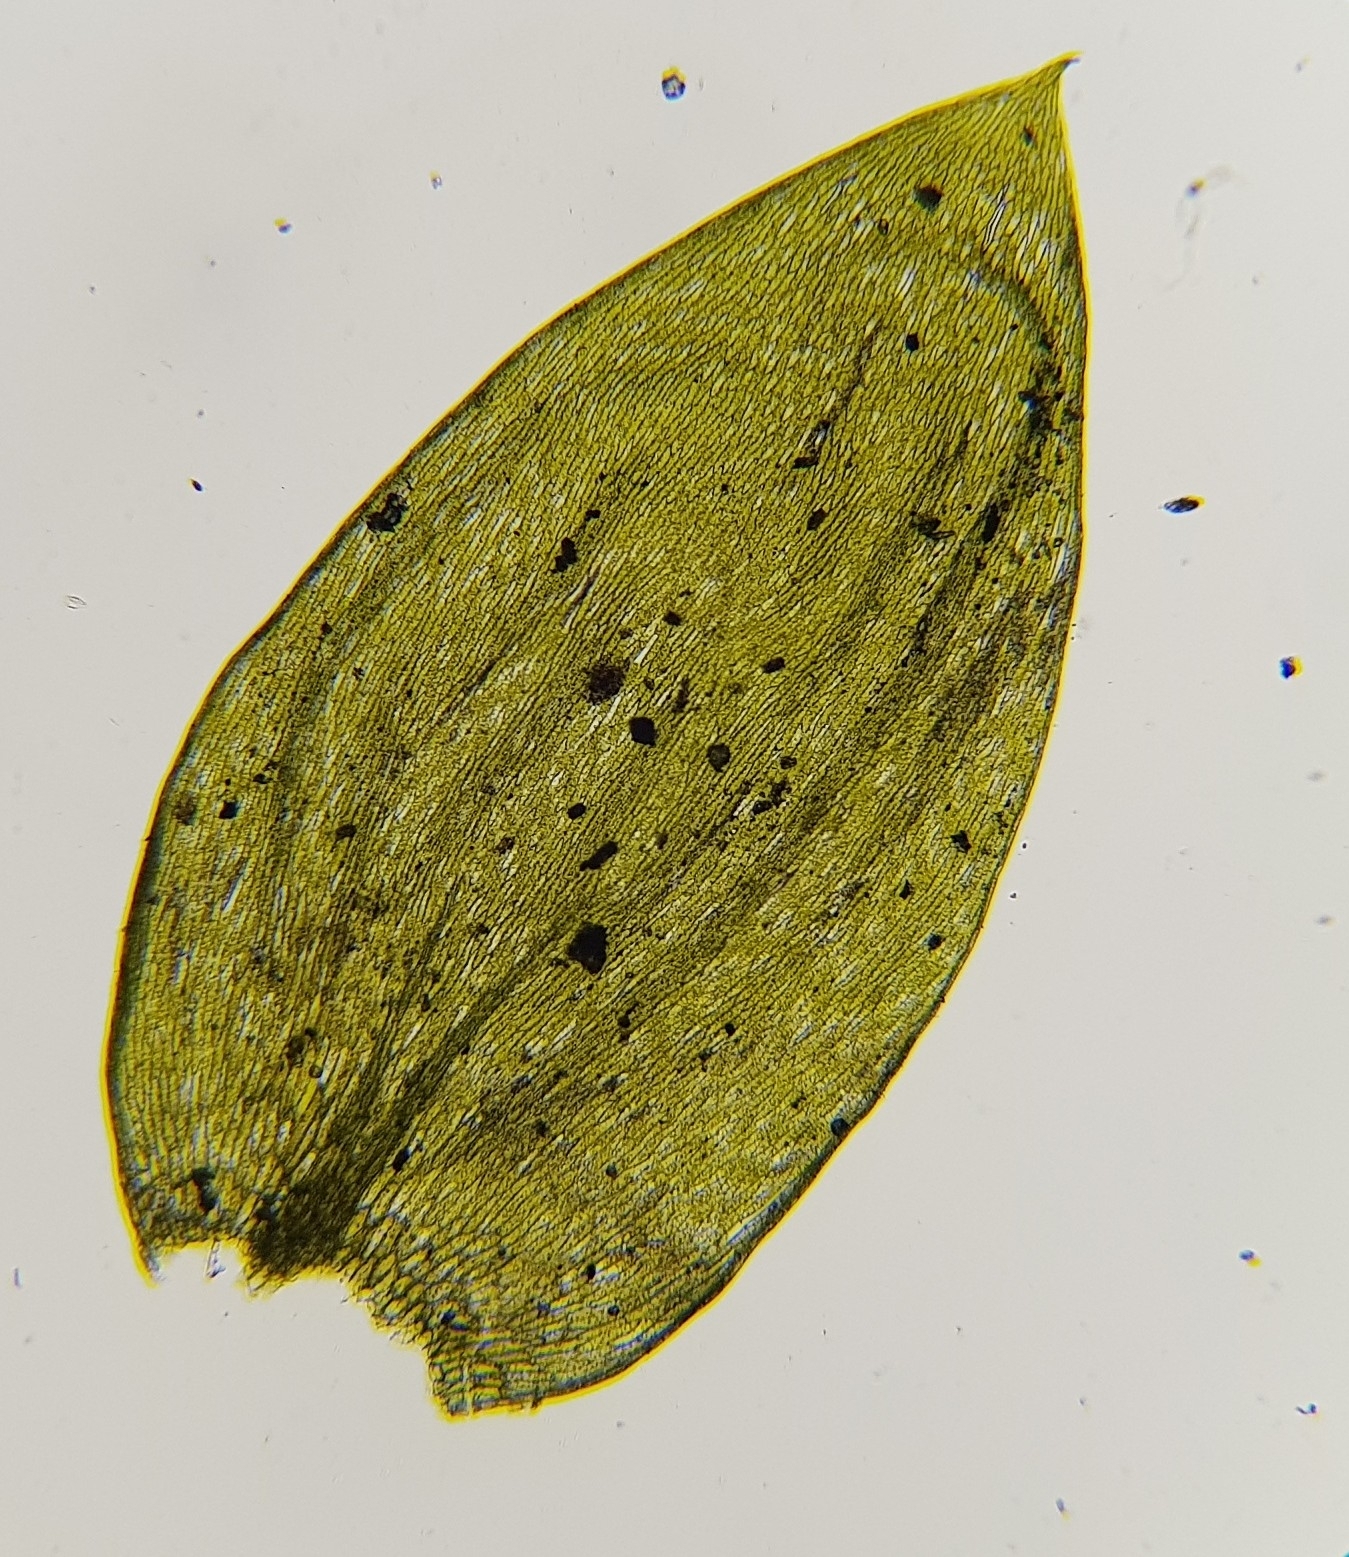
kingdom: Plantae
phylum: Bryophyta
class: Bryopsida
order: Hypnales
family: Plagiotheciaceae
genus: Plagiothecium
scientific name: Plagiothecium nemorale
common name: Woodsy silk-moss
